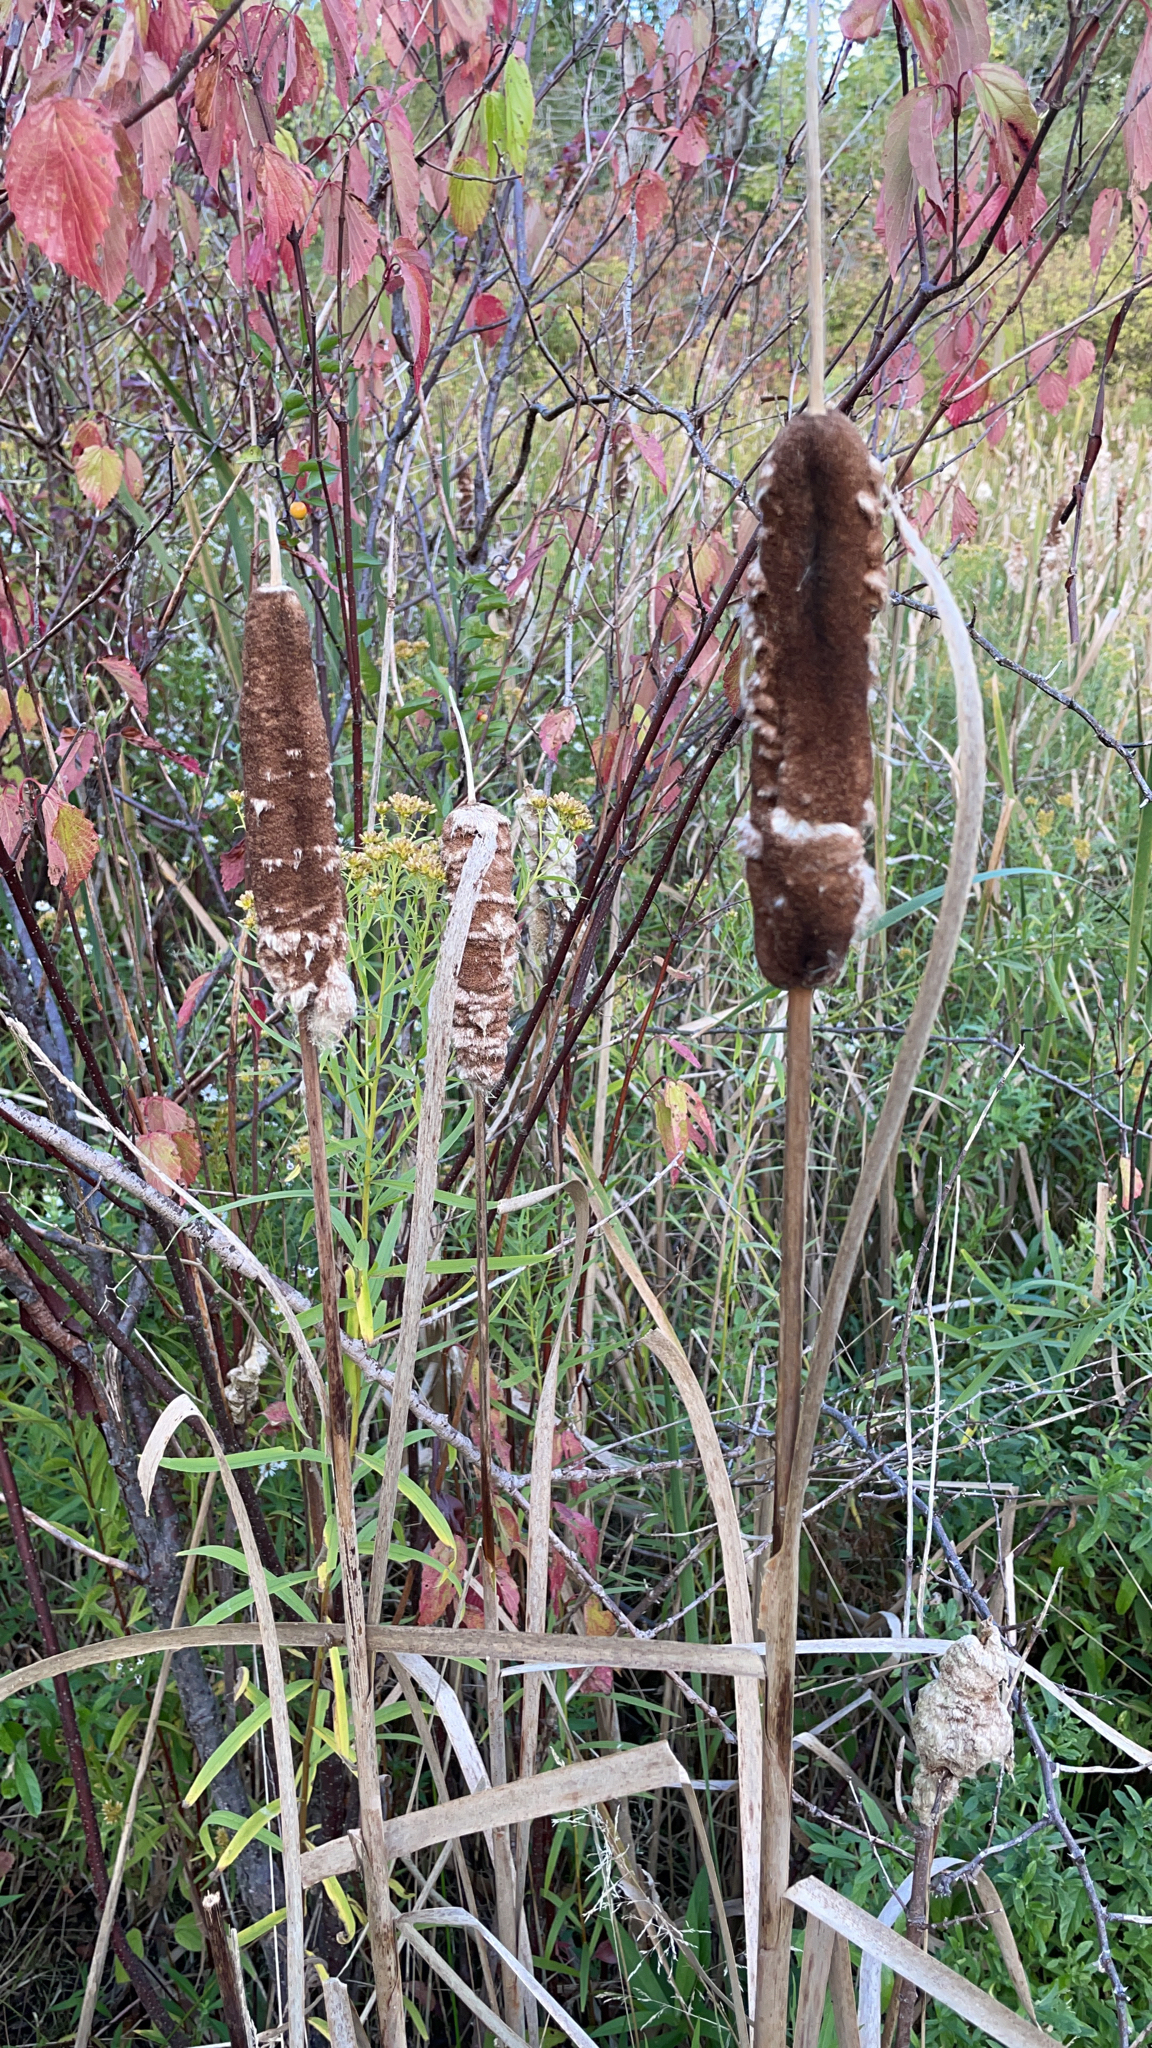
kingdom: Plantae
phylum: Tracheophyta
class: Liliopsida
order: Poales
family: Typhaceae
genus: Typha
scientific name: Typha latifolia
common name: Broadleaf cattail
